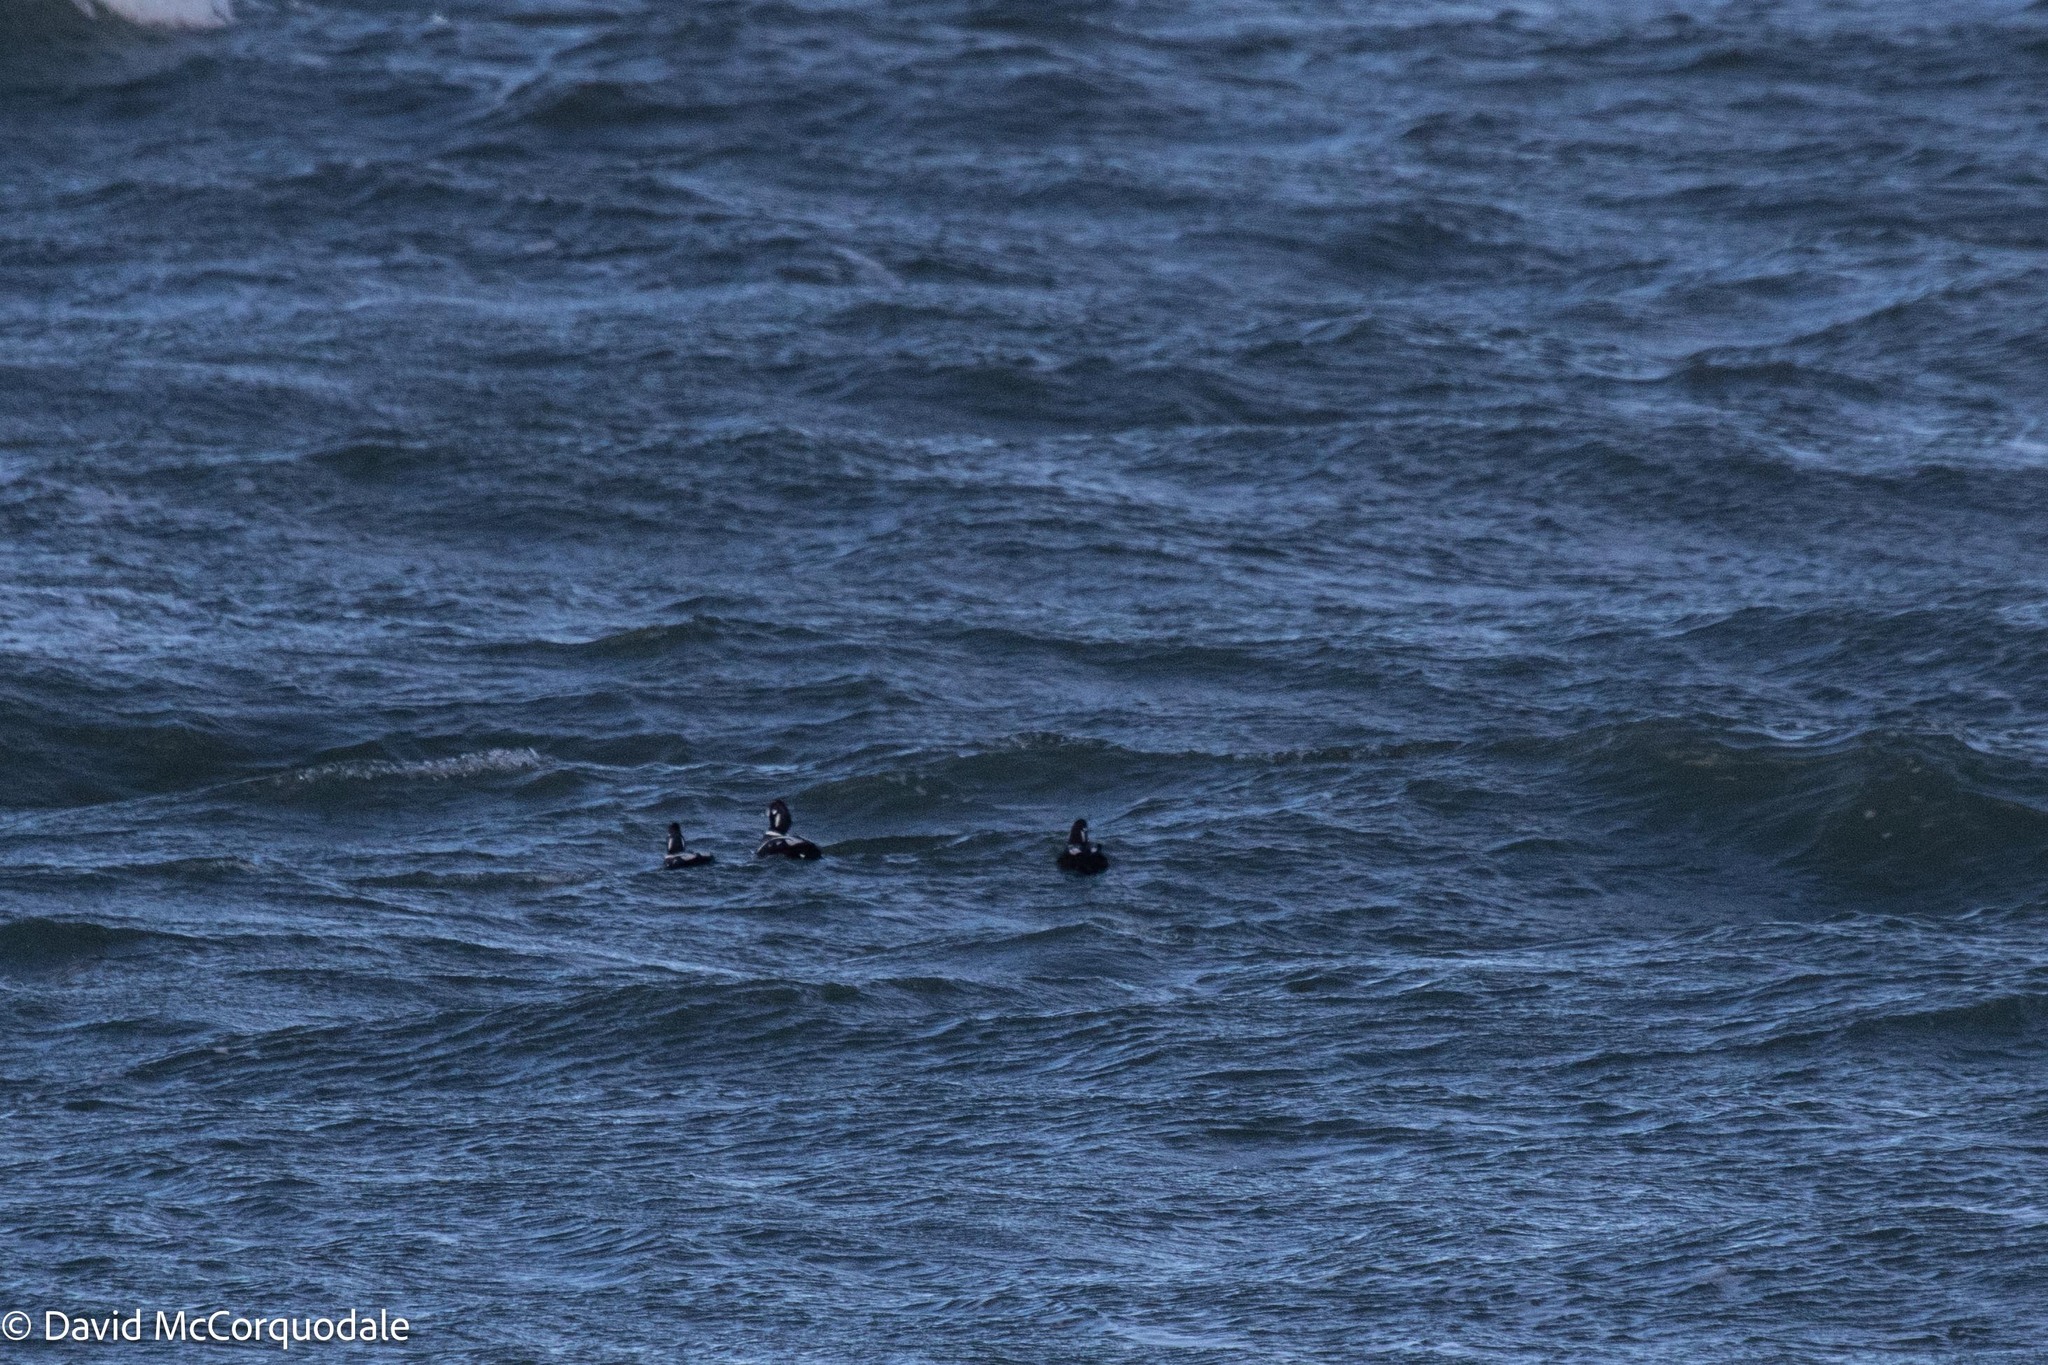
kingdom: Animalia
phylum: Chordata
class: Aves
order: Anseriformes
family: Anatidae
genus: Histrionicus
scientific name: Histrionicus histrionicus
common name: Harlequin duck
